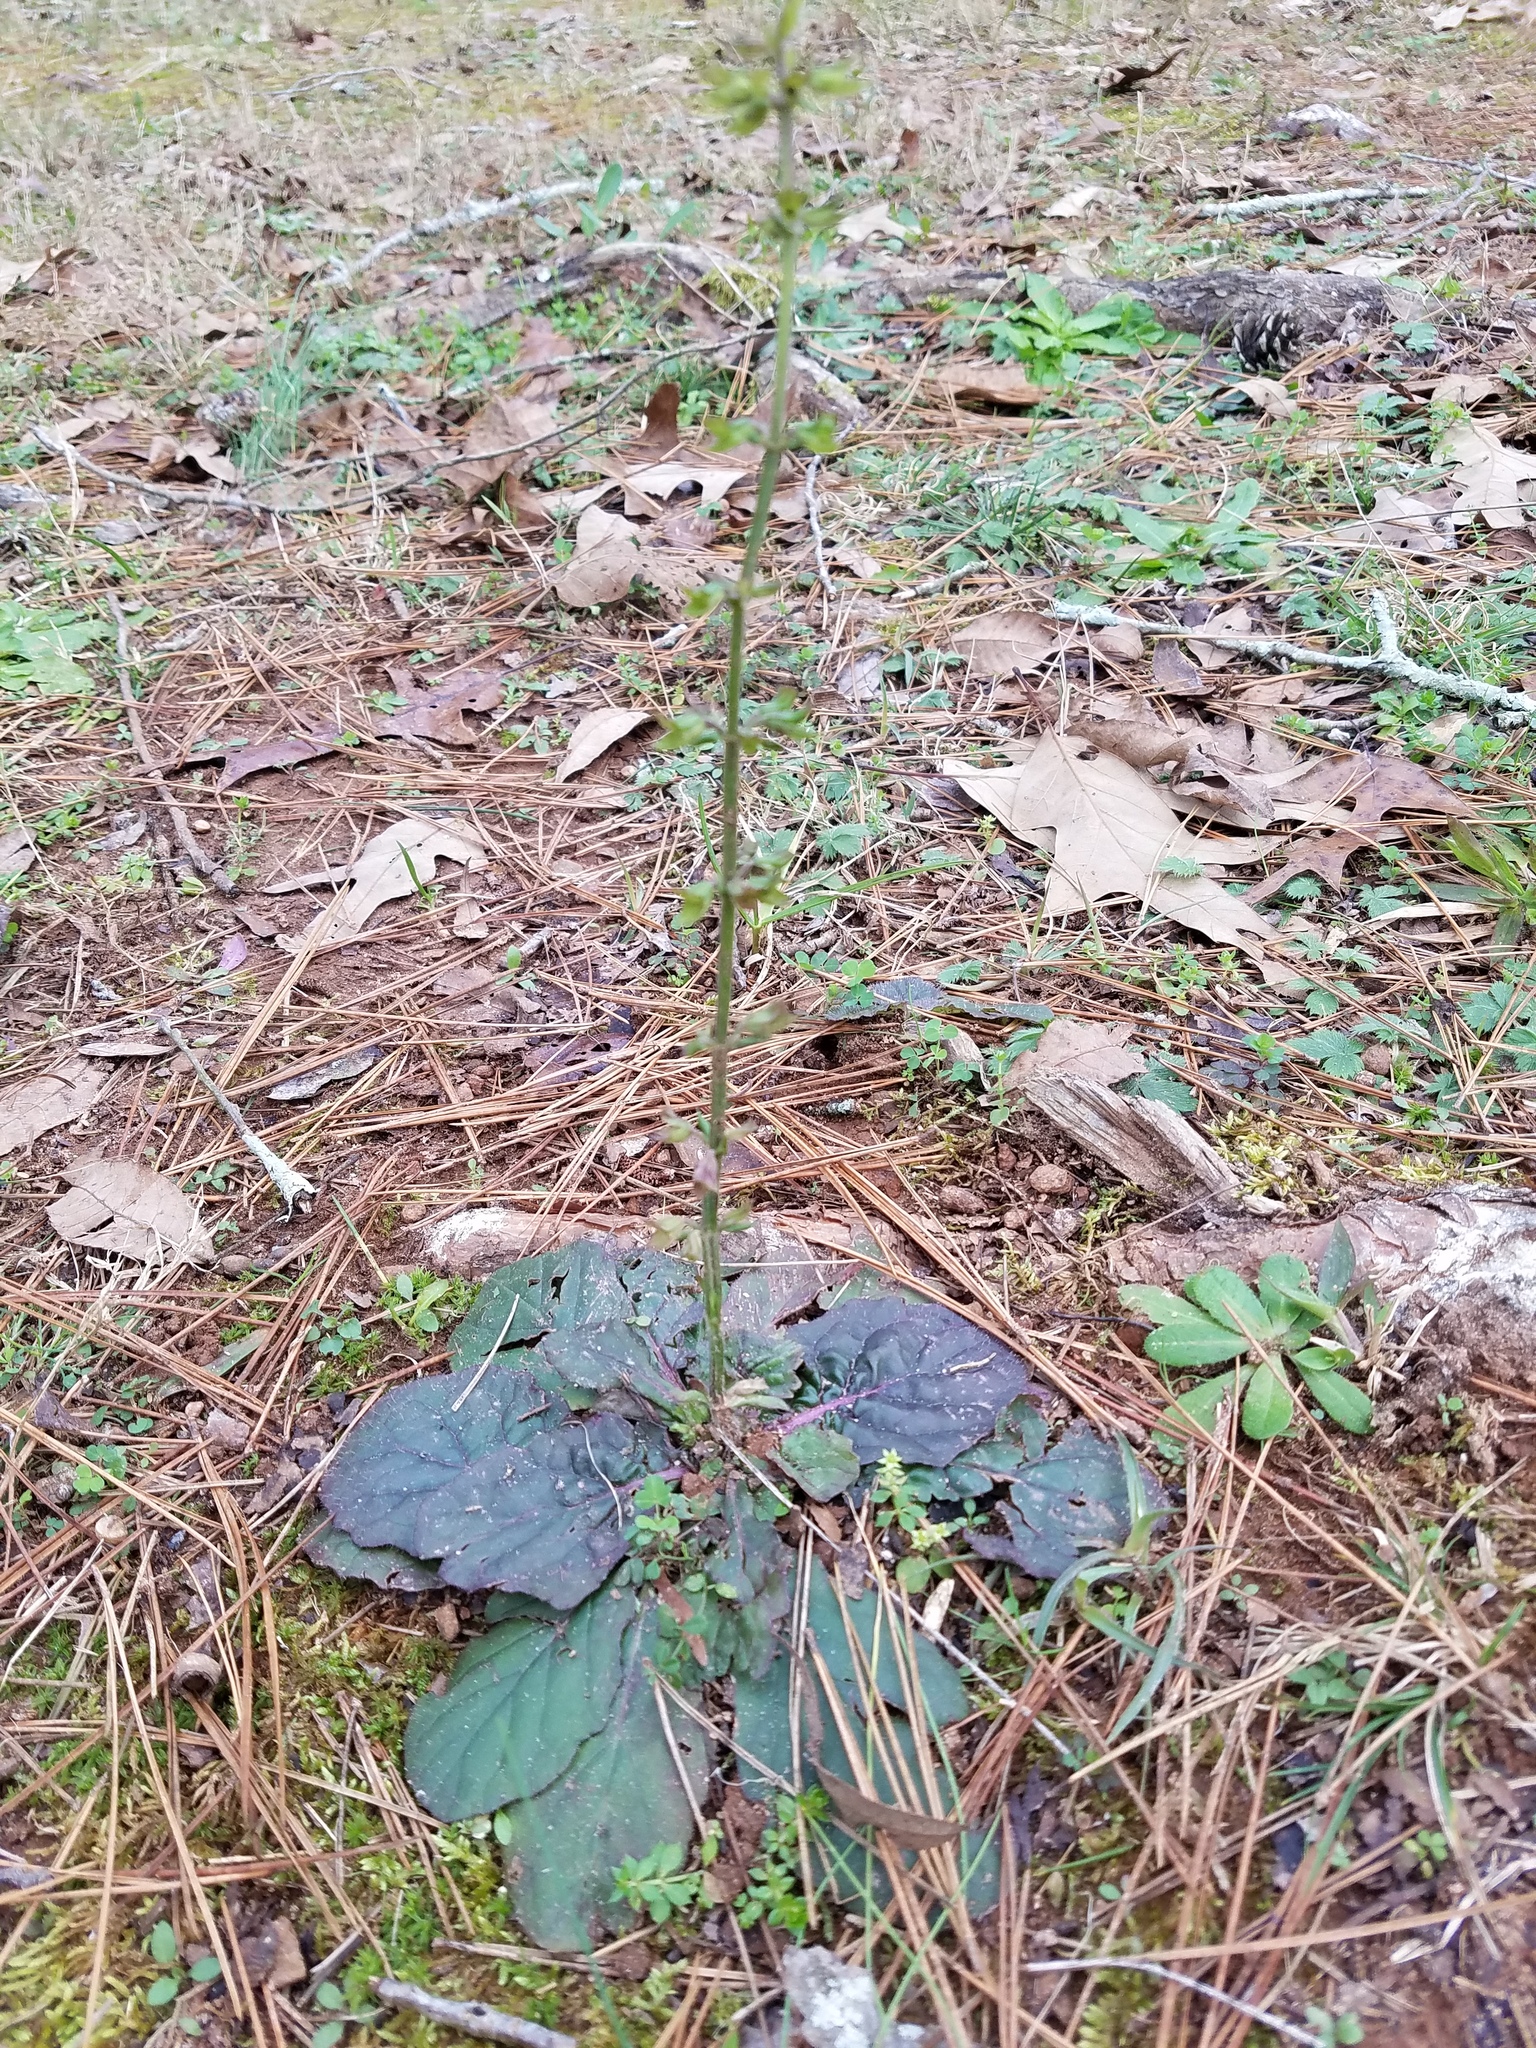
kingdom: Plantae
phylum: Tracheophyta
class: Magnoliopsida
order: Lamiales
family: Lamiaceae
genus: Salvia
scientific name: Salvia lyrata
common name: Cancerweed
